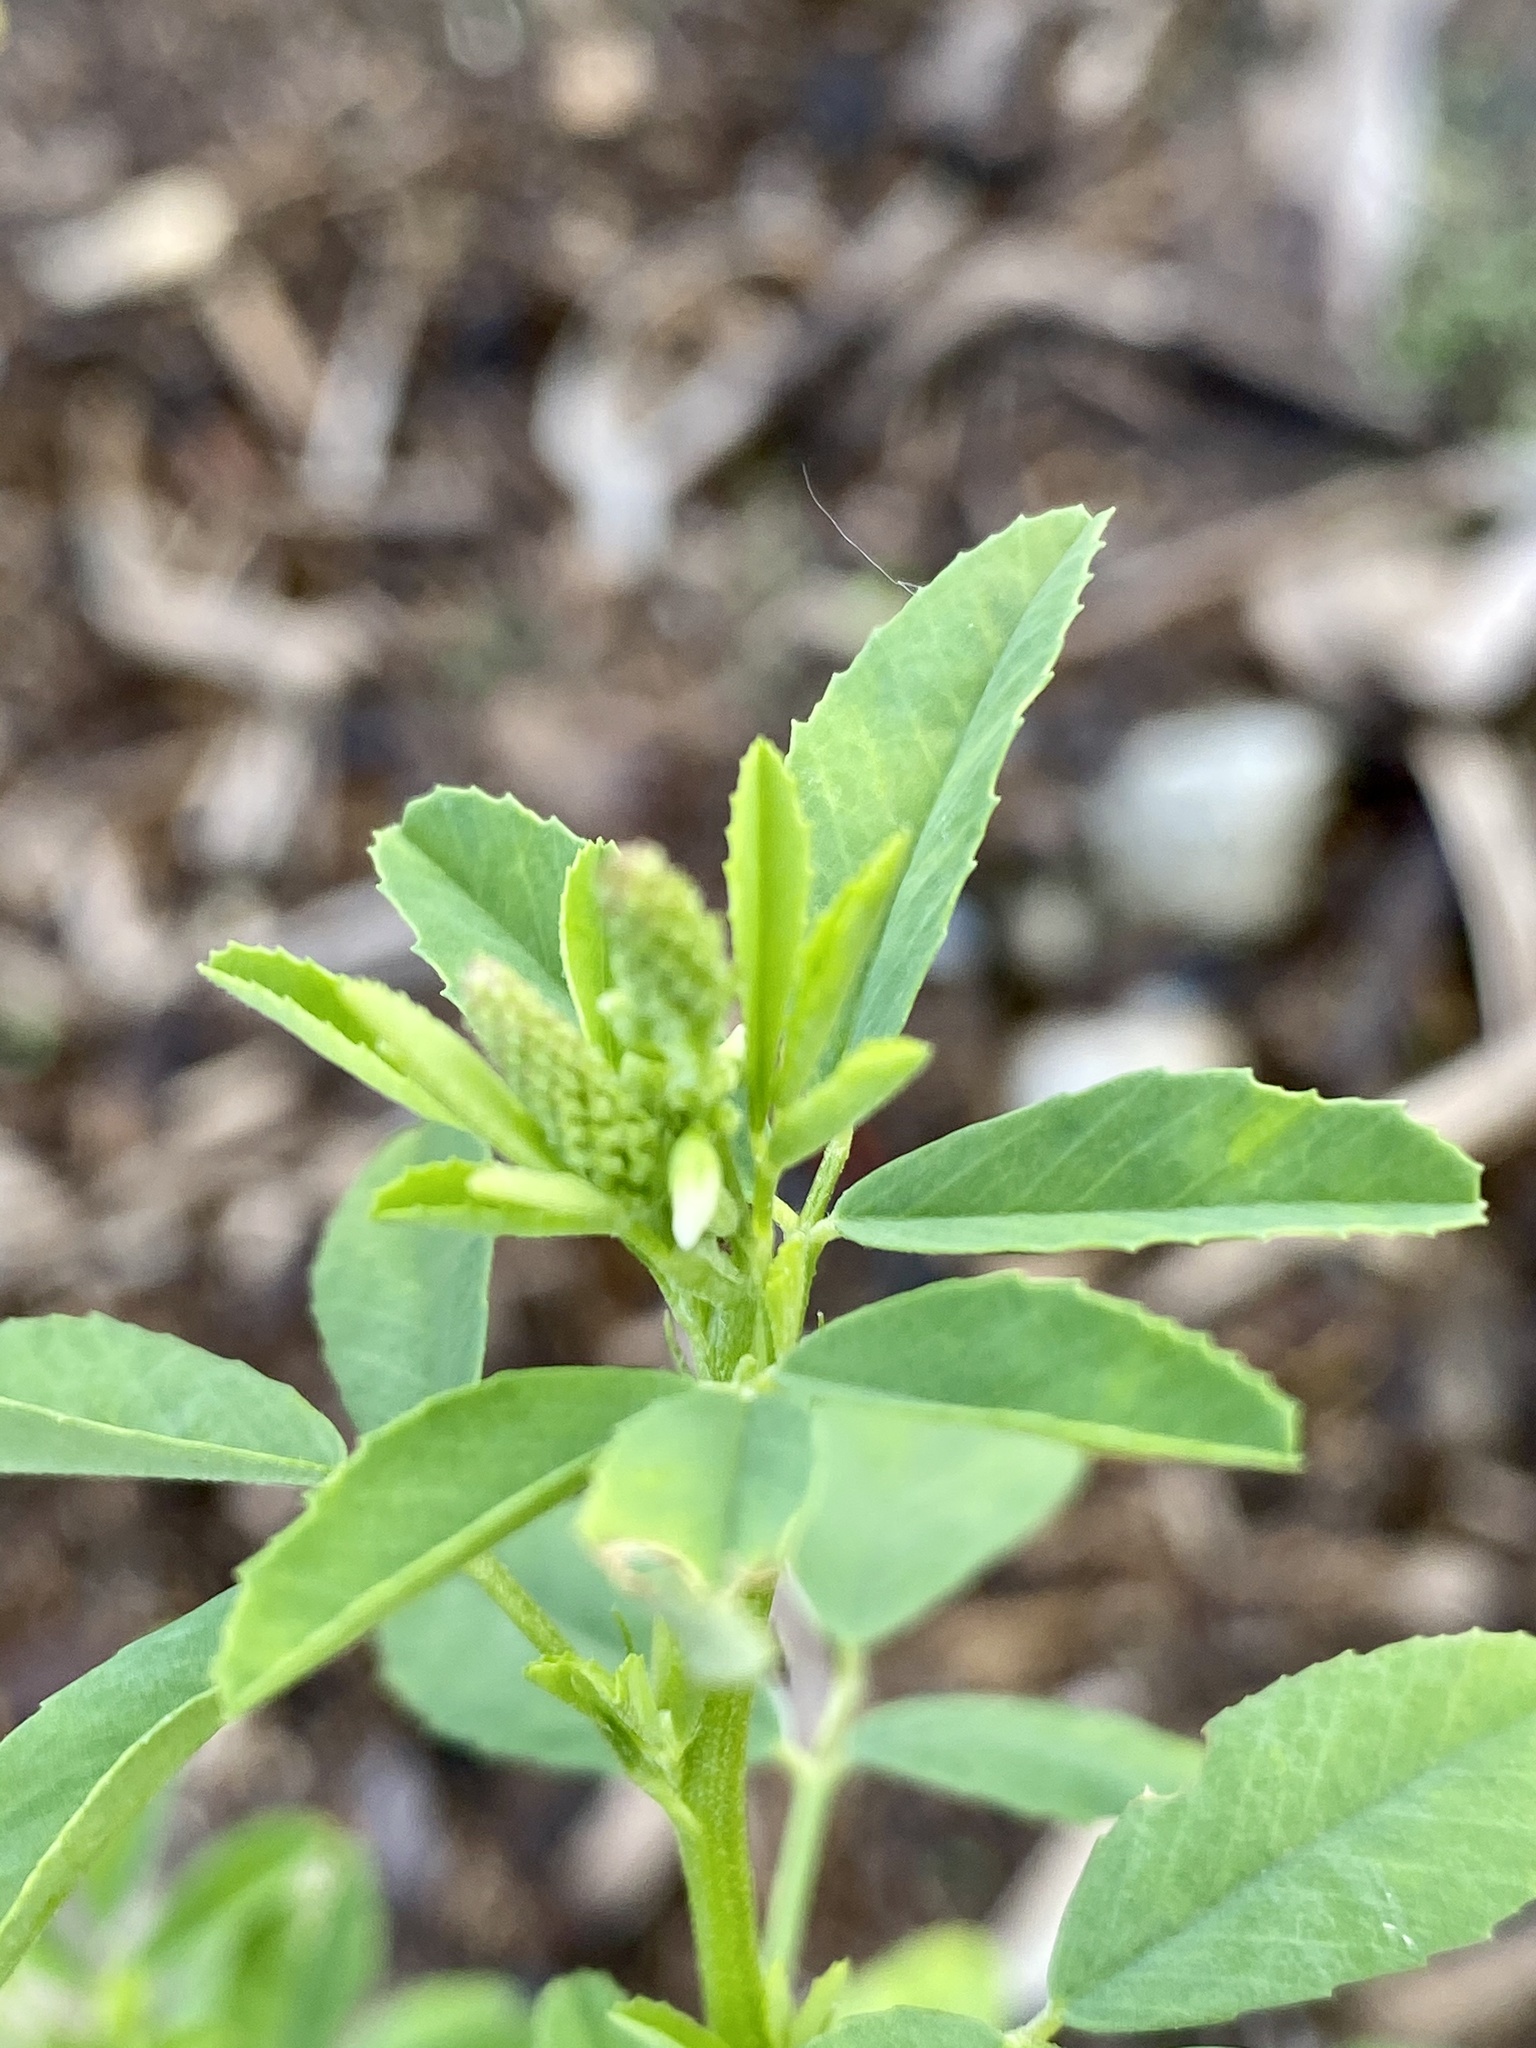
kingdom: Plantae
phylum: Tracheophyta
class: Magnoliopsida
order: Fabales
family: Fabaceae
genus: Melilotus
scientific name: Melilotus albus
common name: White melilot
